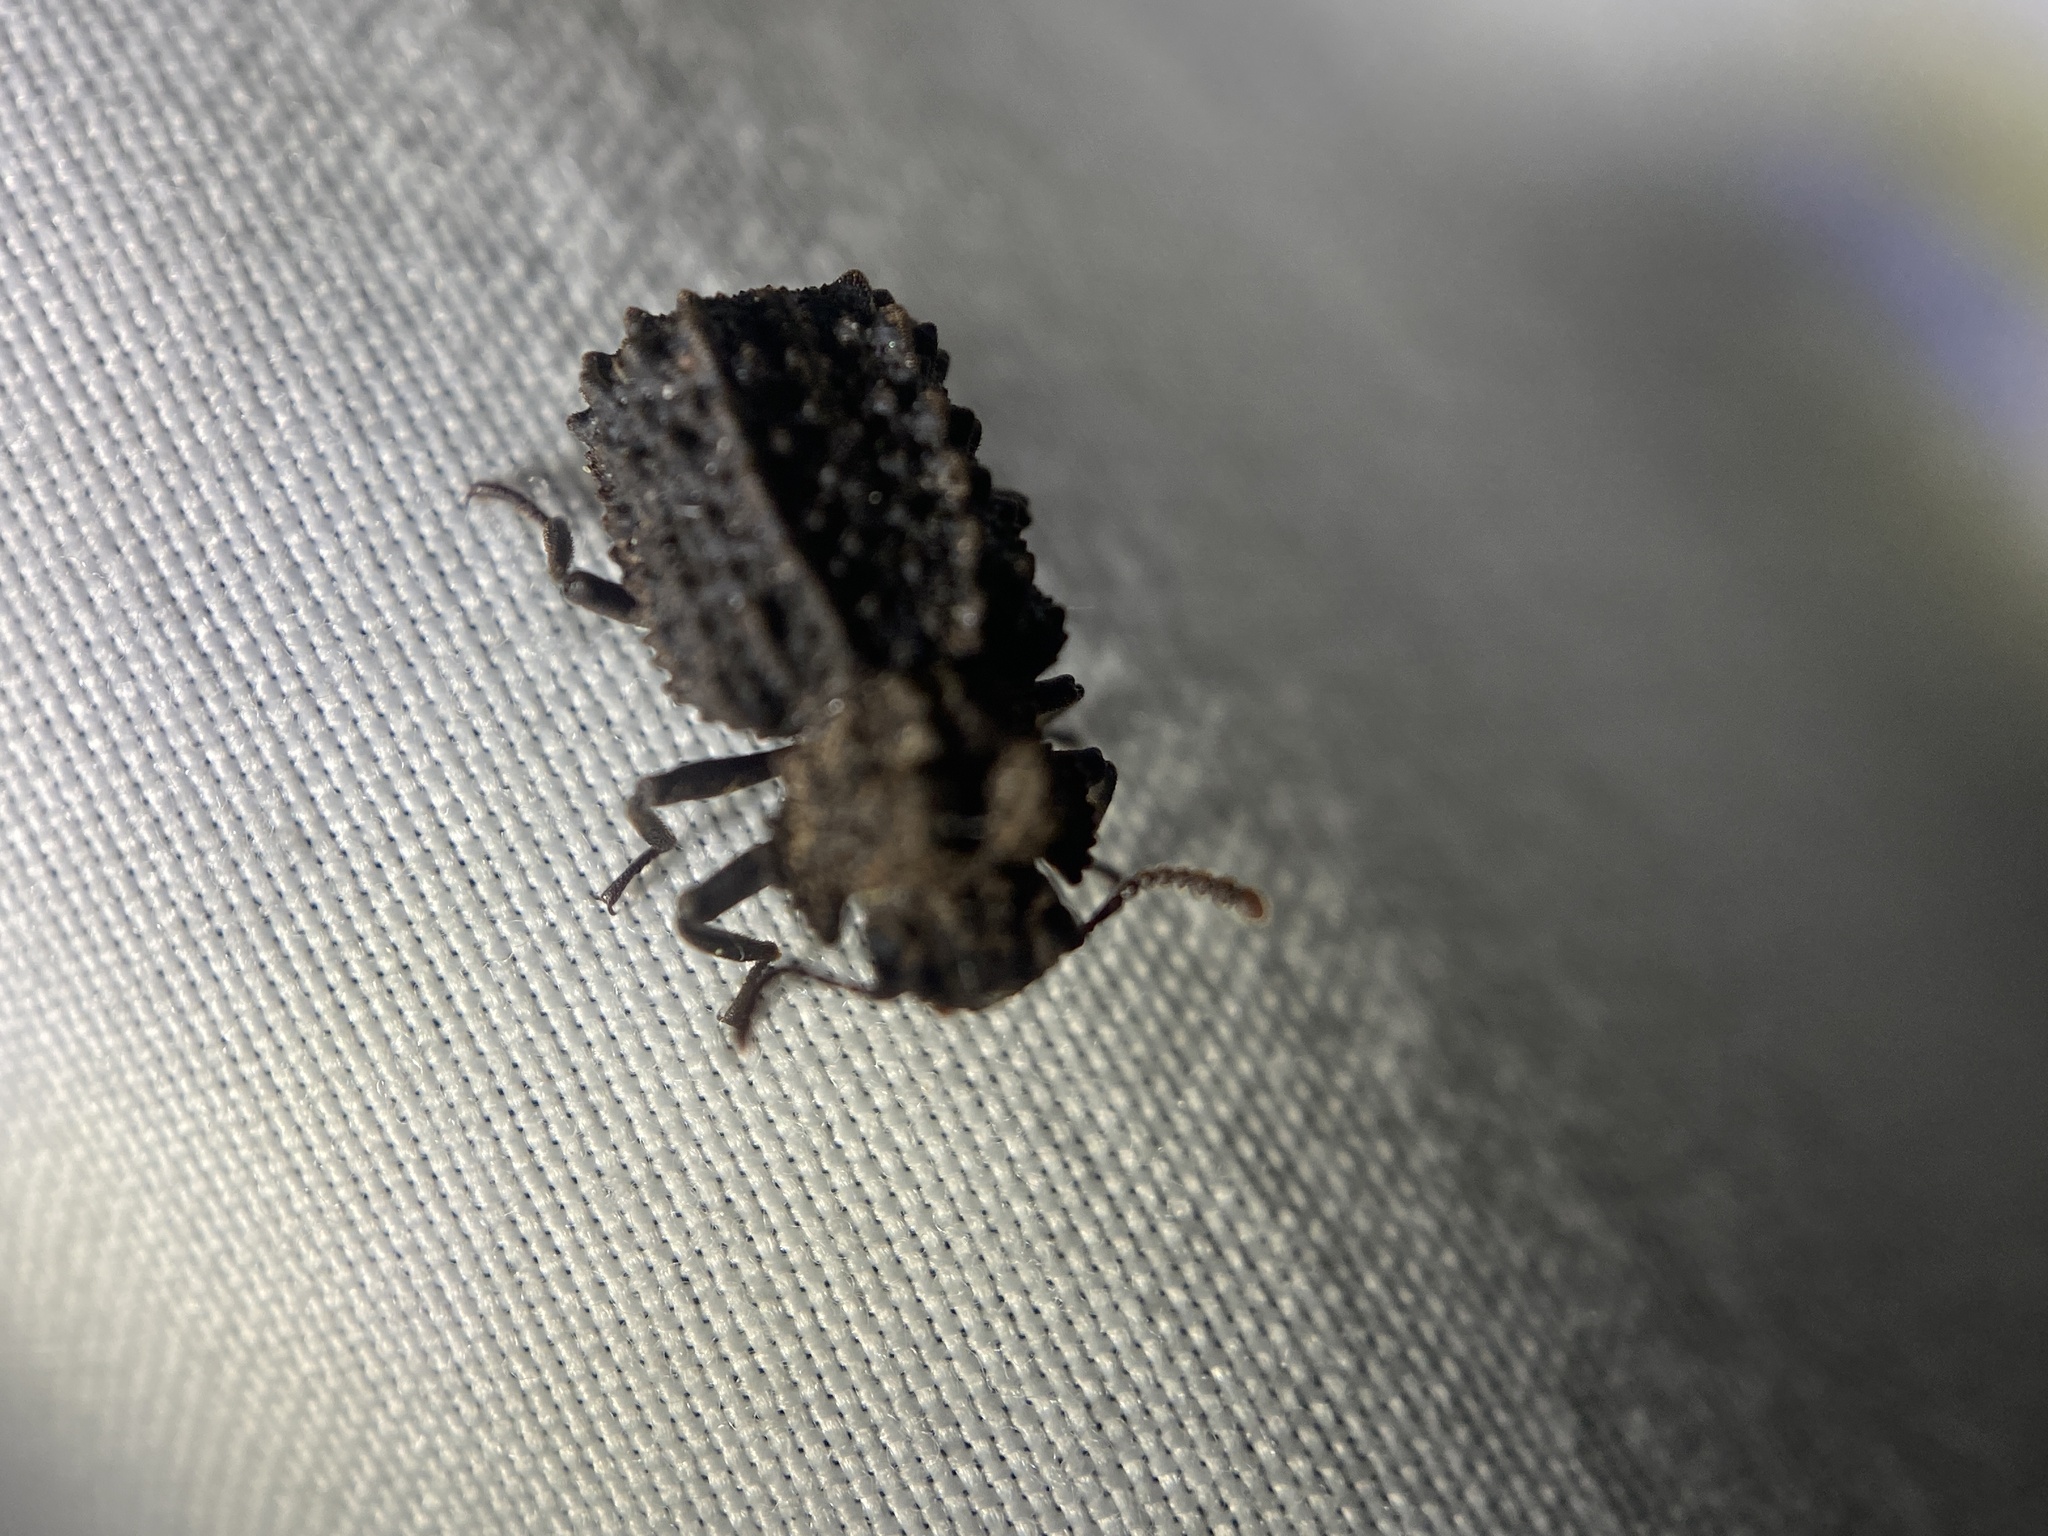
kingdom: Animalia
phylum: Arthropoda
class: Insecta
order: Coleoptera
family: Tenebrionidae
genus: Gnatocerus
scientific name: Gnatocerus cornutus
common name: Broad-horned flour beetle
